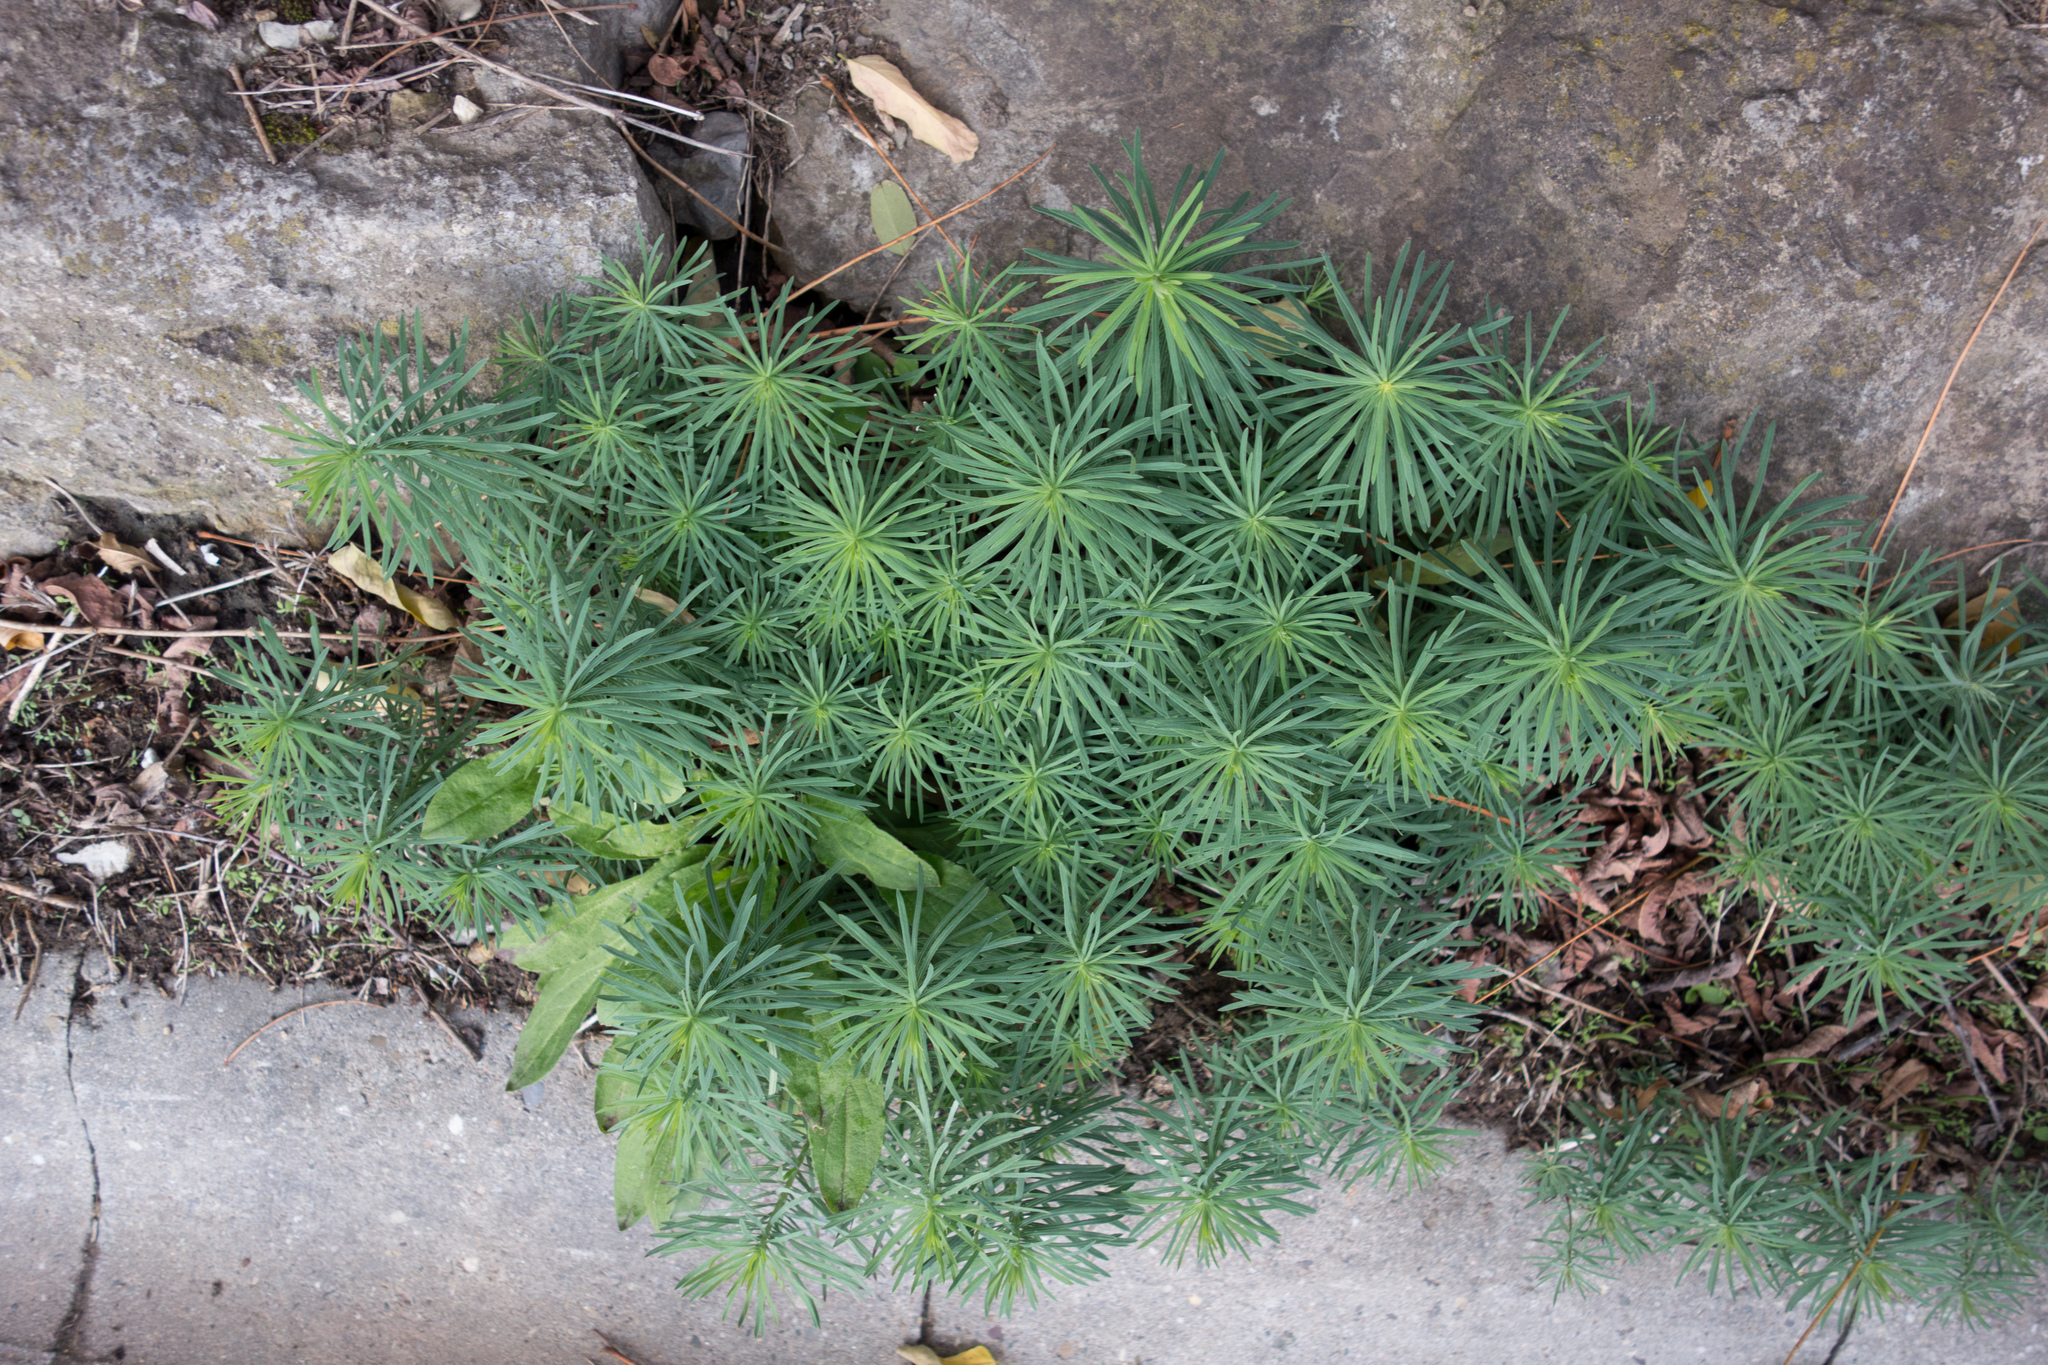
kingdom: Plantae
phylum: Tracheophyta
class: Magnoliopsida
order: Malpighiales
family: Euphorbiaceae
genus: Euphorbia
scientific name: Euphorbia cyparissias
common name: Cypress spurge
